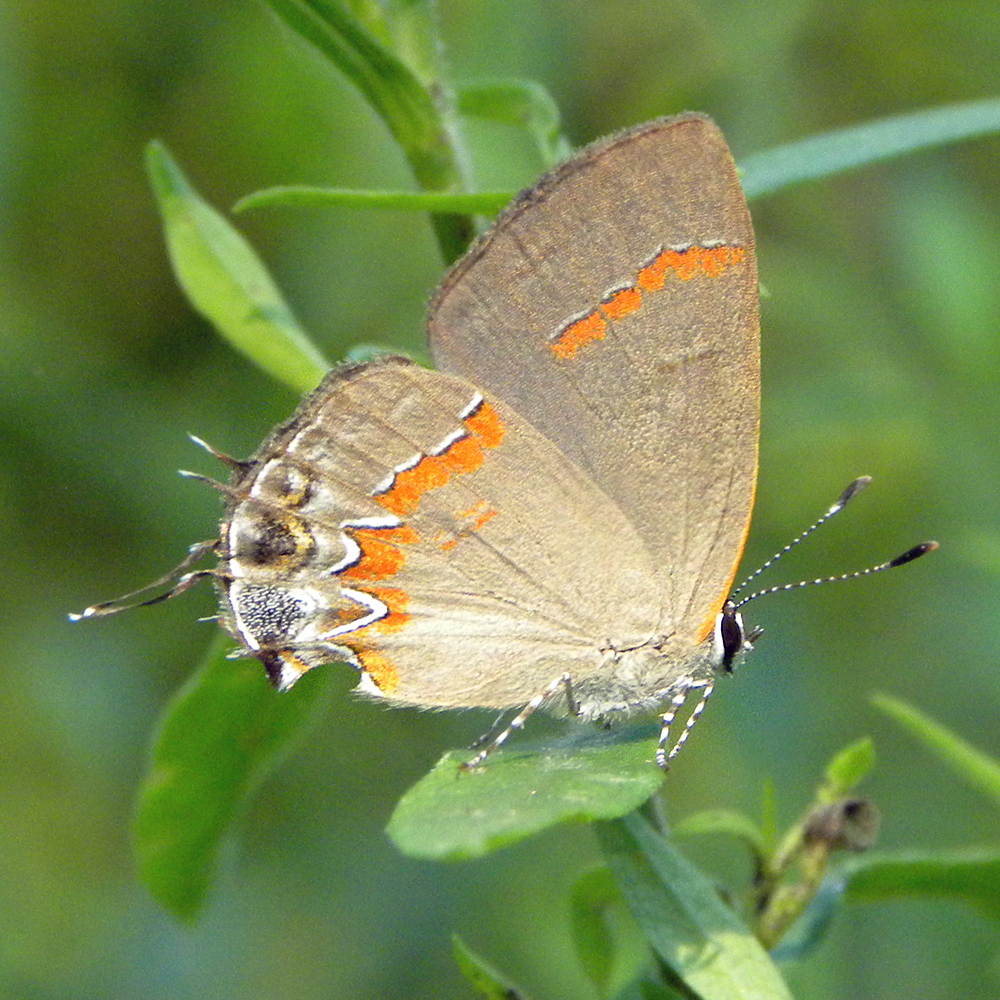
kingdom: Animalia
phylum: Arthropoda
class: Insecta
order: Lepidoptera
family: Lycaenidae
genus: Calycopis
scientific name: Calycopis cecrops
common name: Red-banded hairstreak
